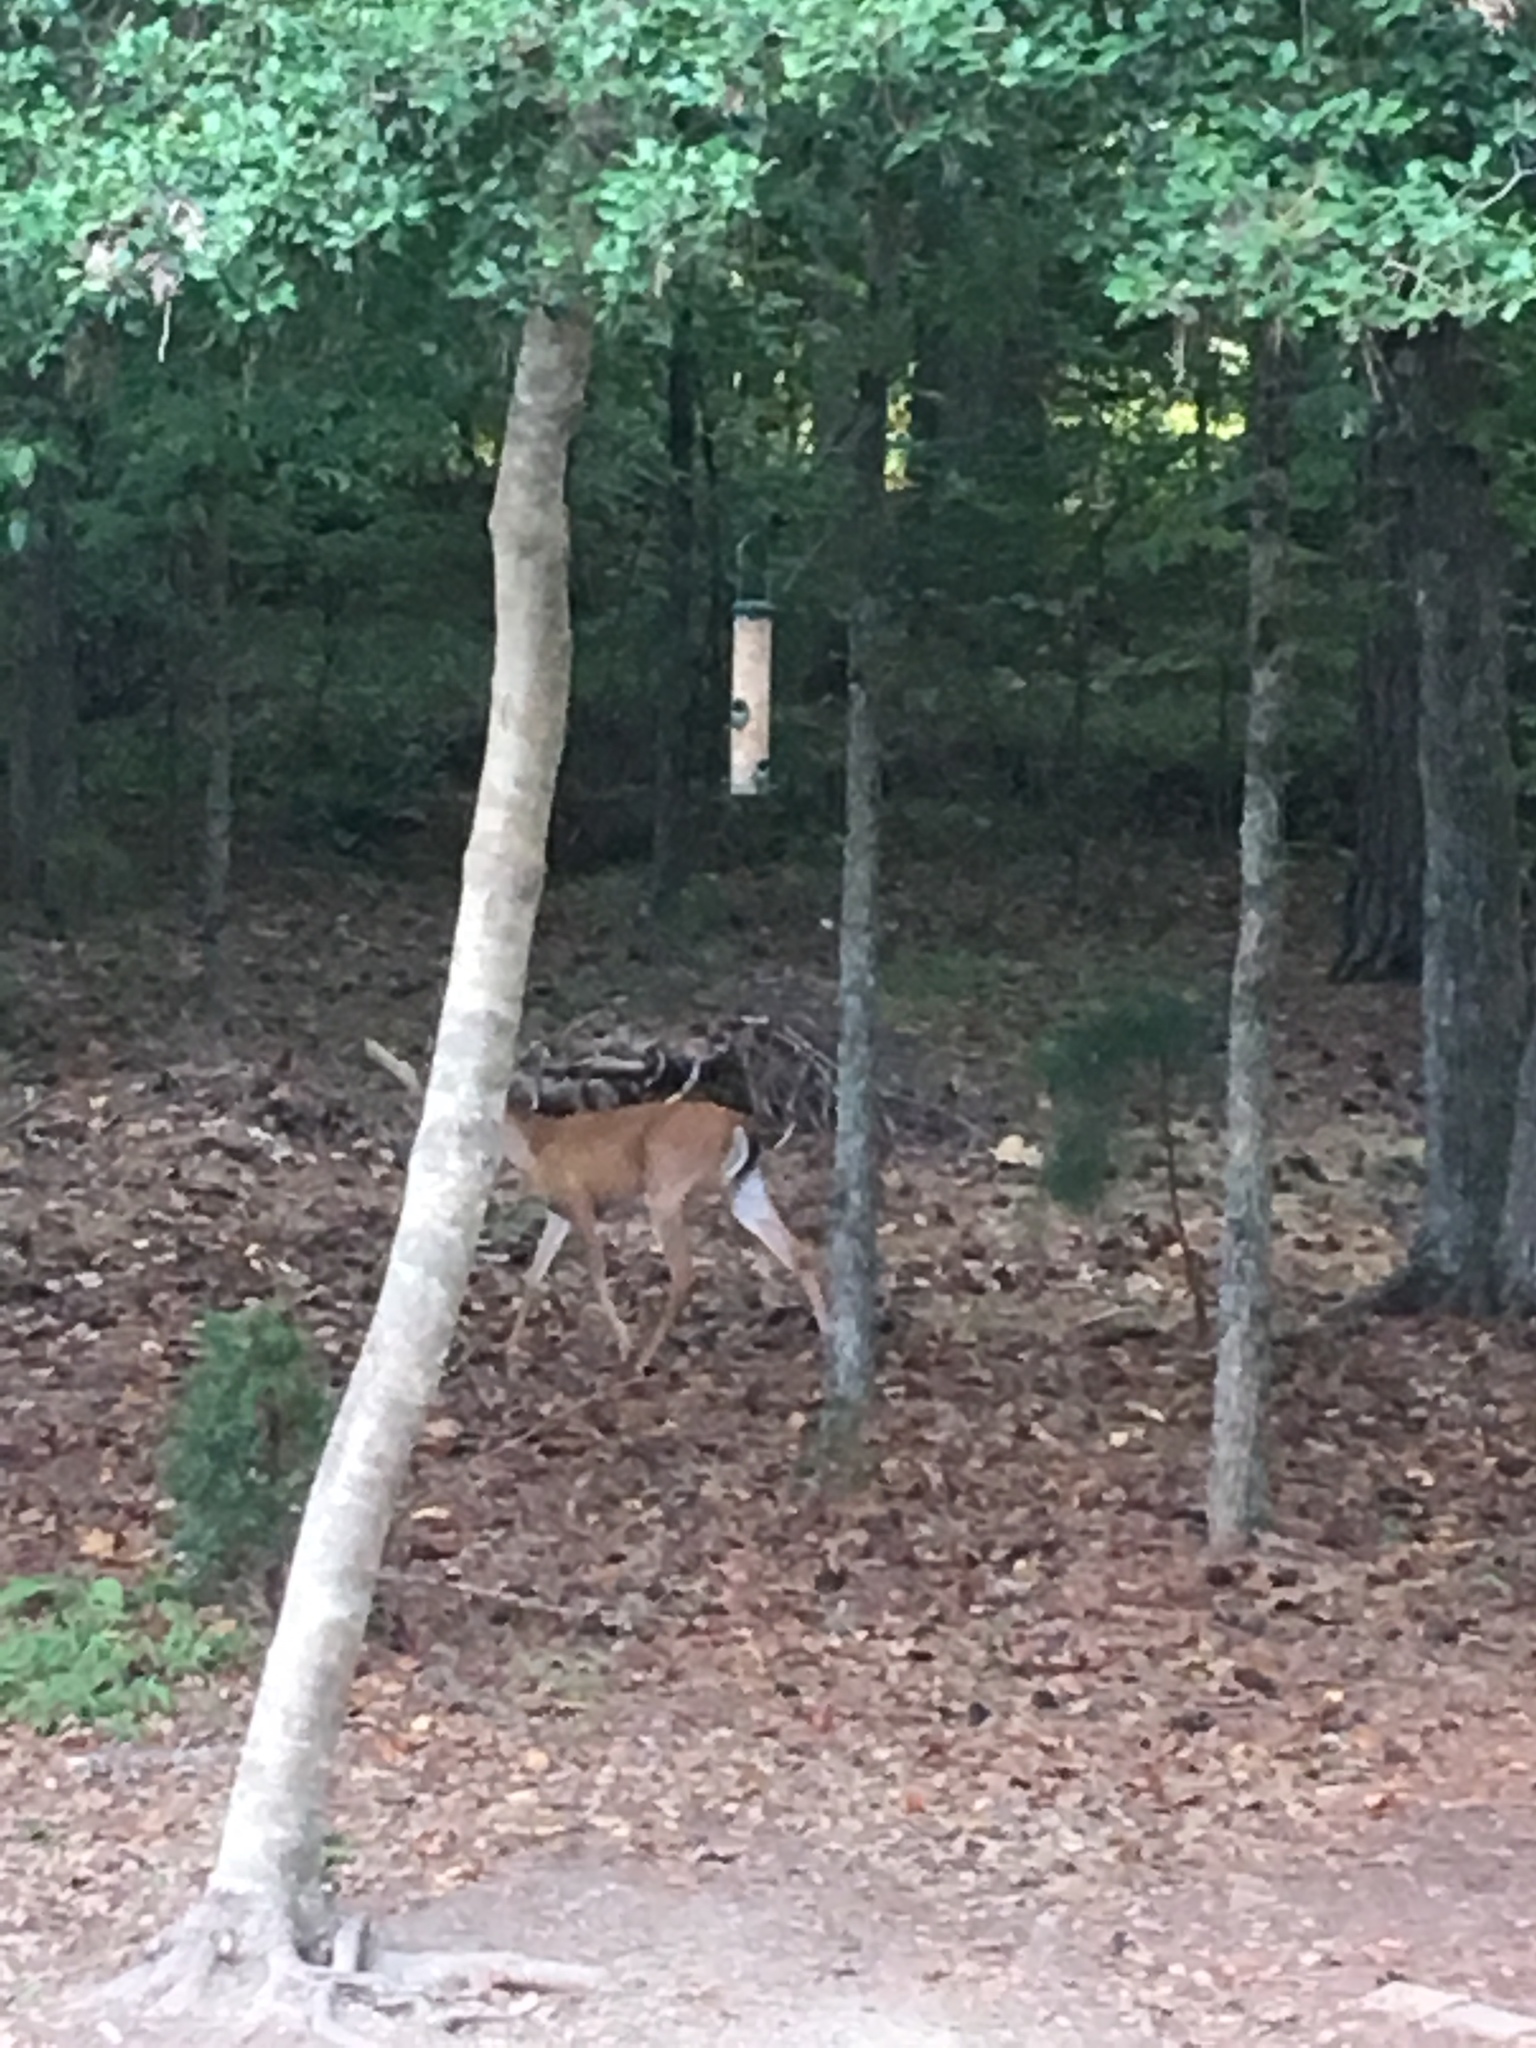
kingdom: Animalia
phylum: Chordata
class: Mammalia
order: Artiodactyla
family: Cervidae
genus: Odocoileus
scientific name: Odocoileus virginianus
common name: White-tailed deer
